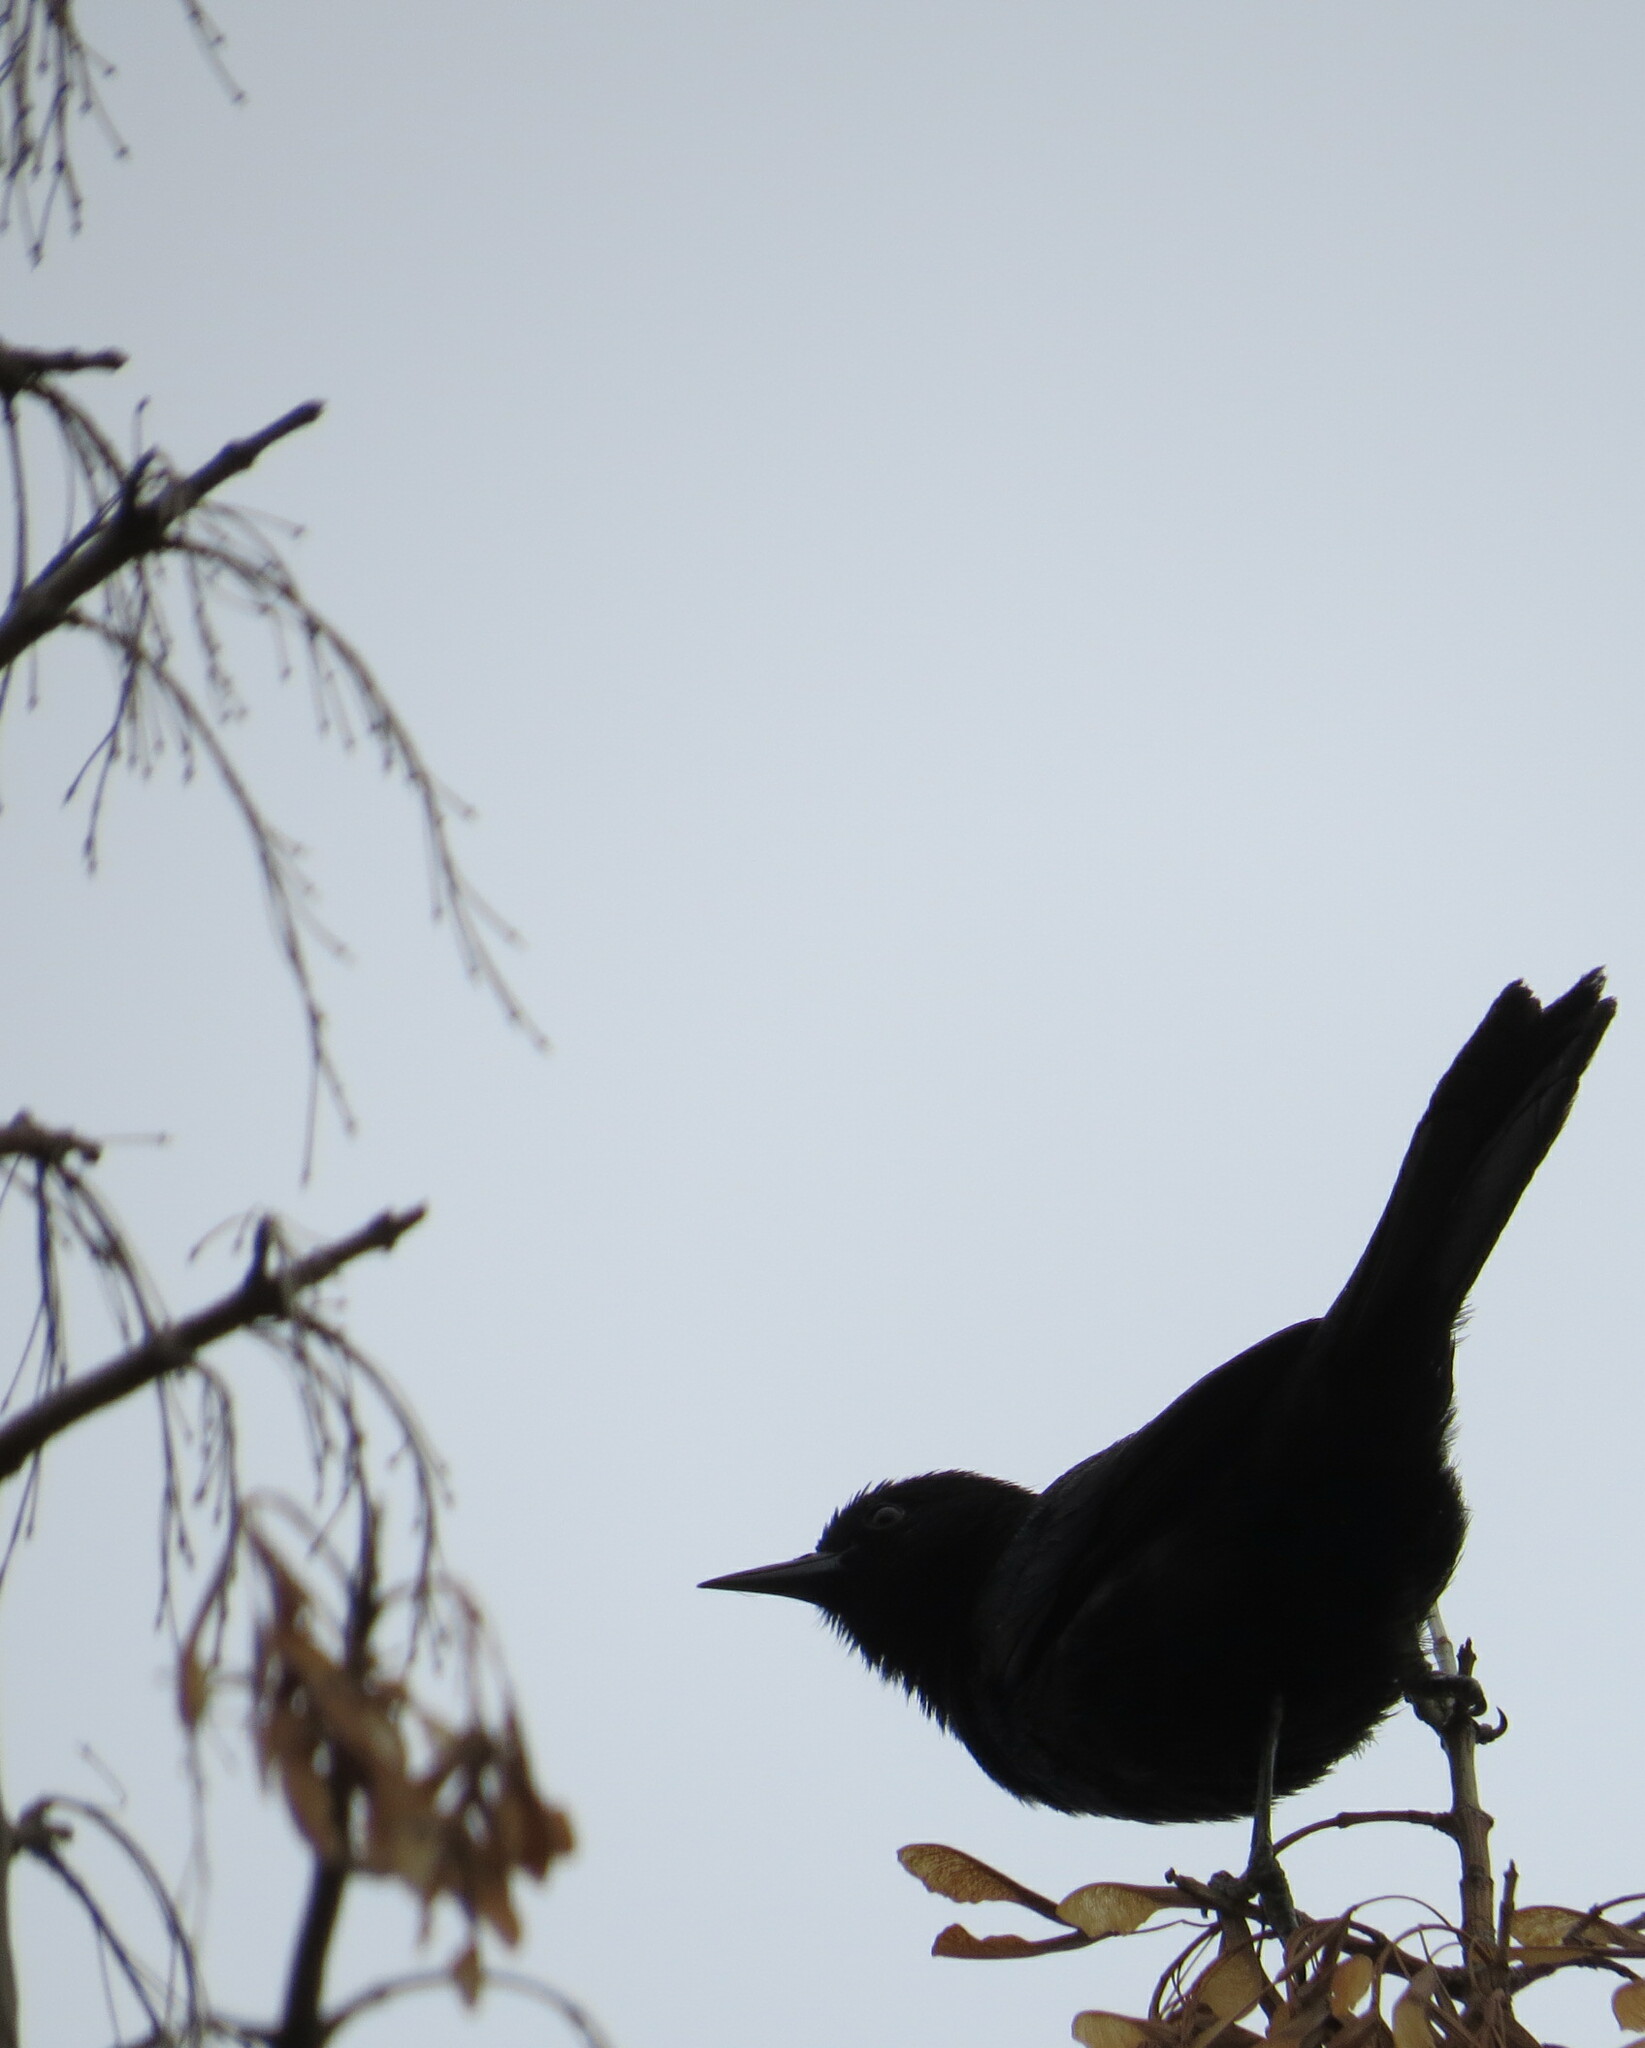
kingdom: Animalia
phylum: Chordata
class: Aves
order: Passeriformes
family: Icteridae
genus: Icterus
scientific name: Icterus cayanensis
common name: Epaulet oriole
